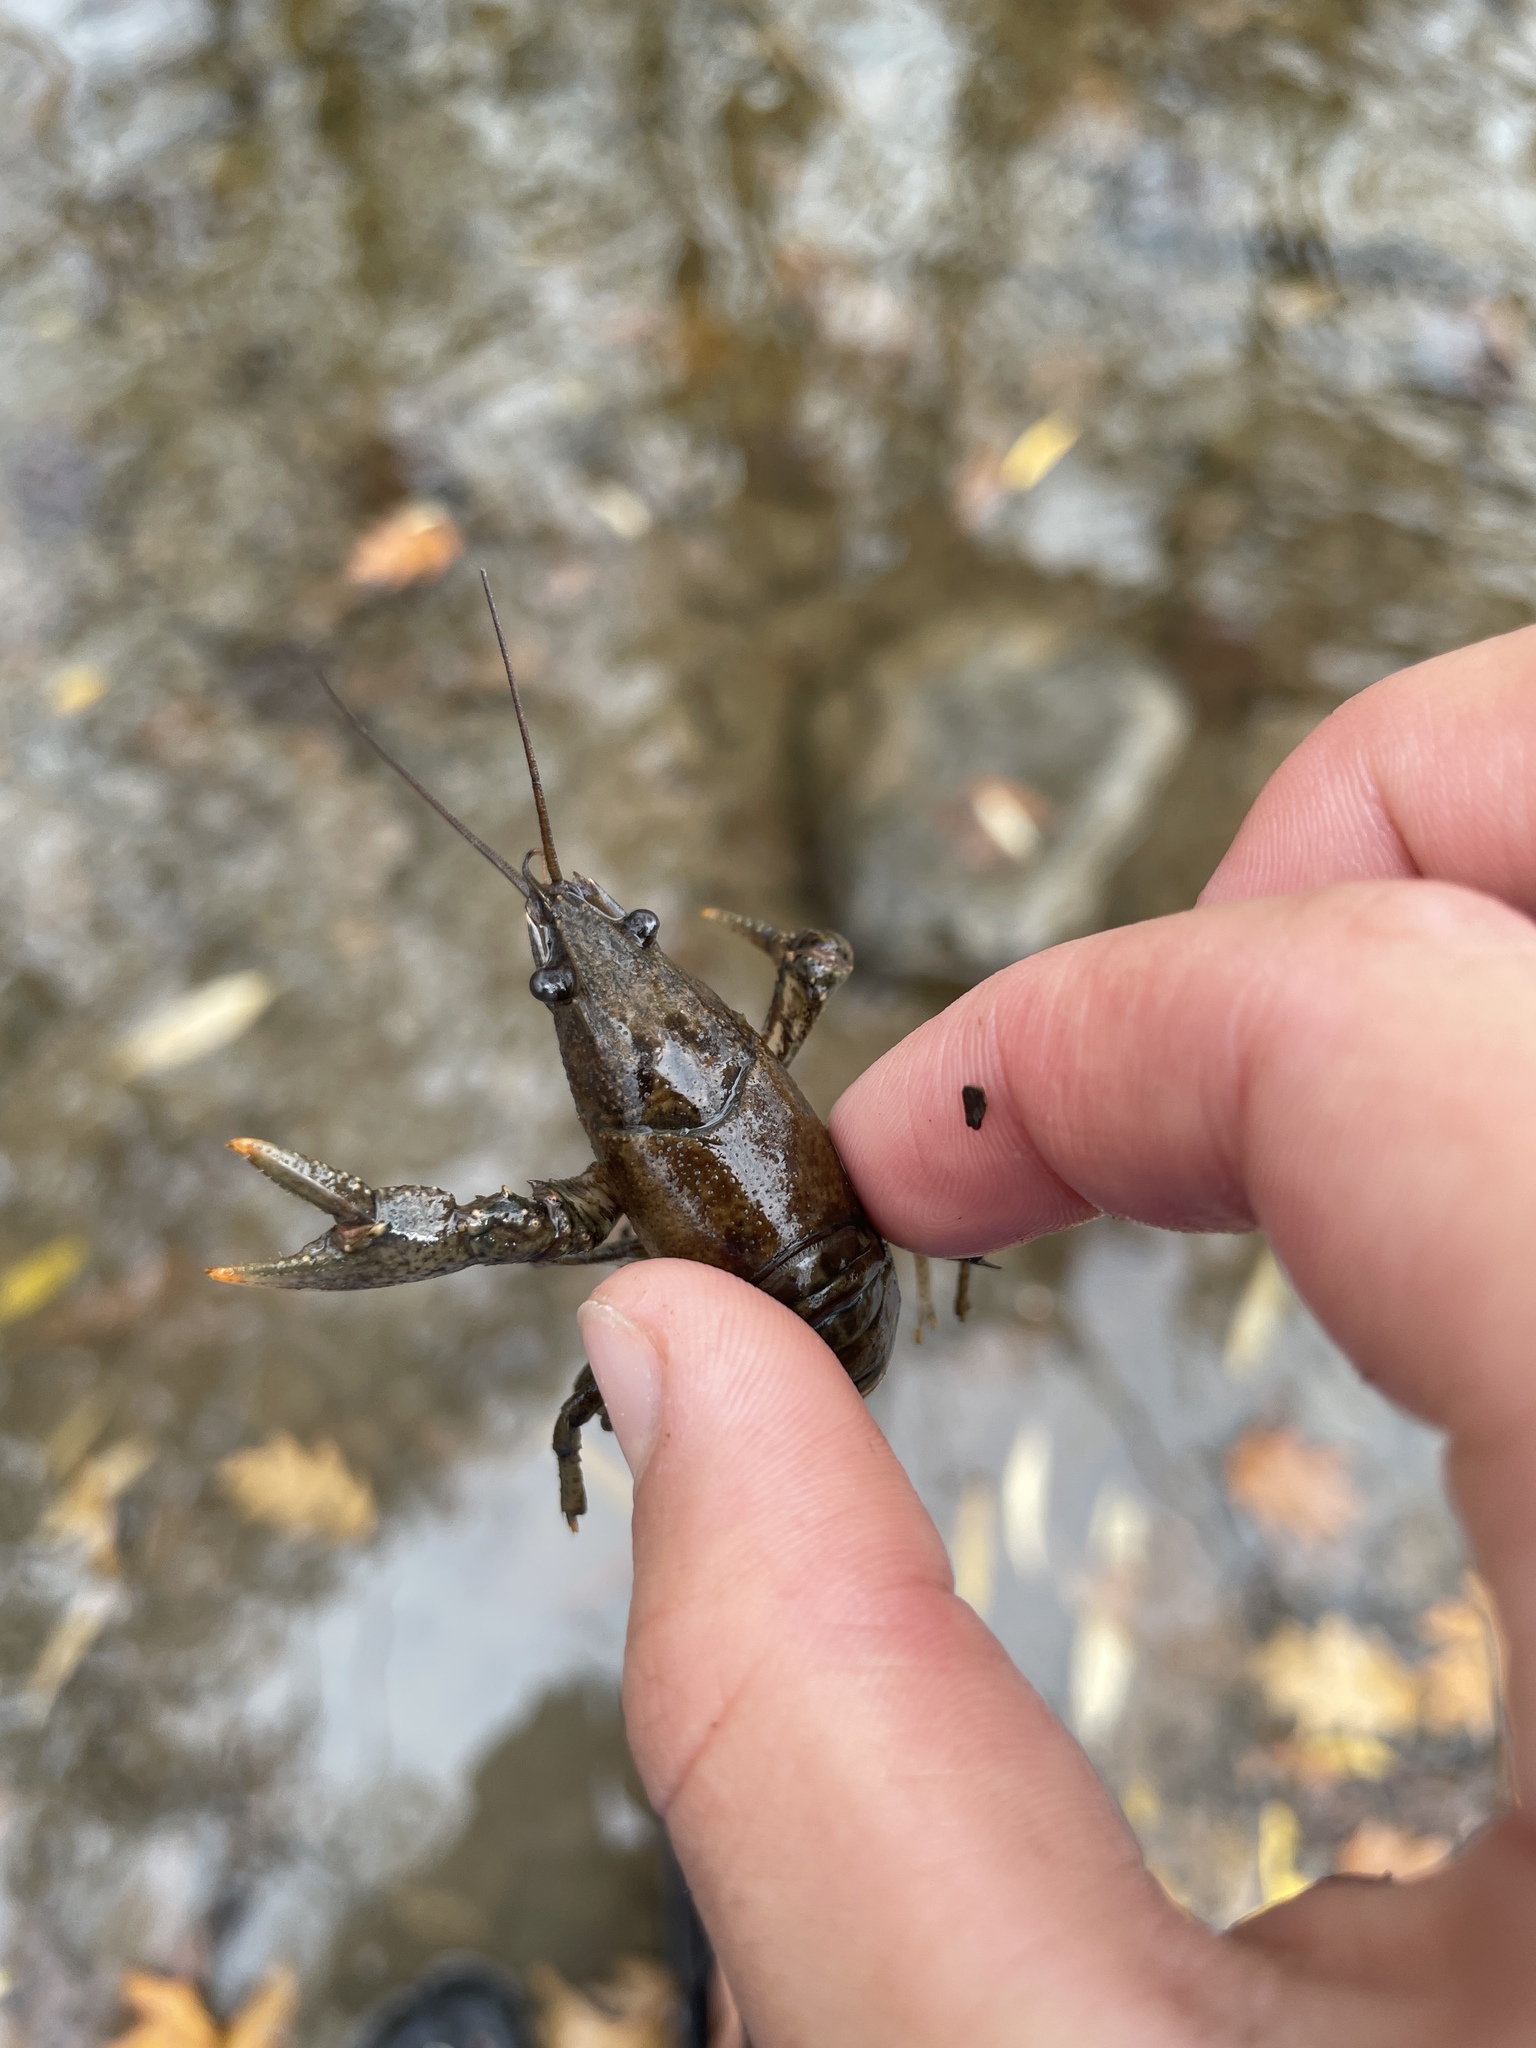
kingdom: Animalia
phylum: Arthropoda
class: Malacostraca
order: Decapoda
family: Cambaridae
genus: Faxonius
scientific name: Faxonius virilis
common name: Virile crayfish
